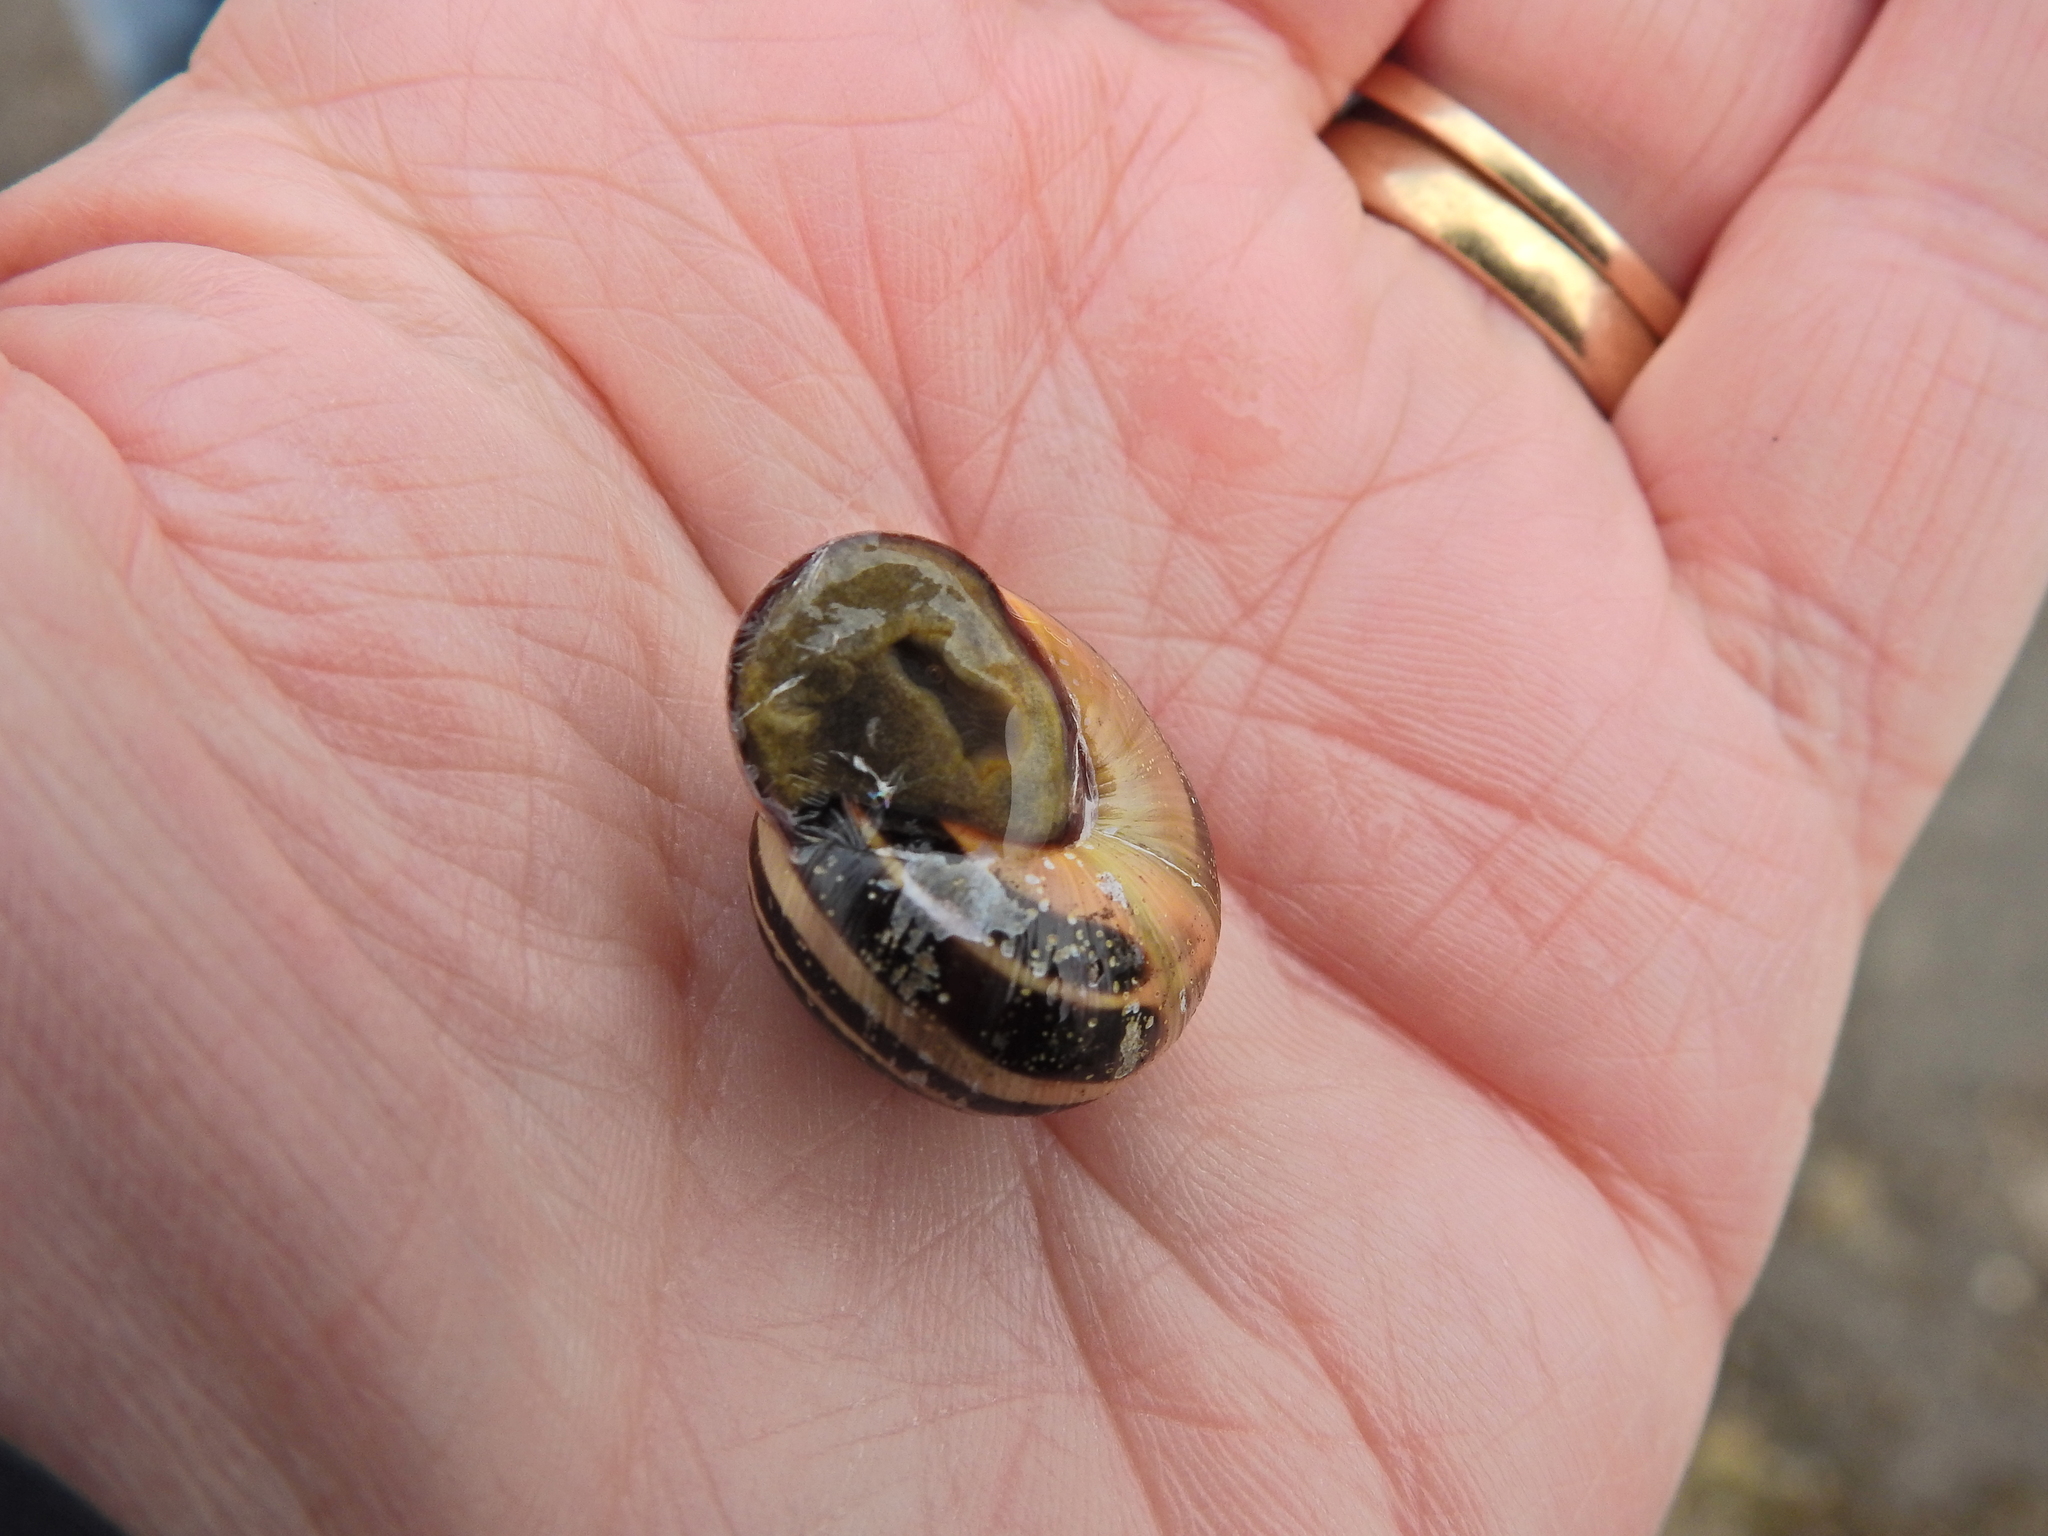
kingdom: Animalia
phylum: Mollusca
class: Gastropoda
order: Stylommatophora
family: Helicidae
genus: Cepaea
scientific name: Cepaea nemoralis
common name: Grovesnail
